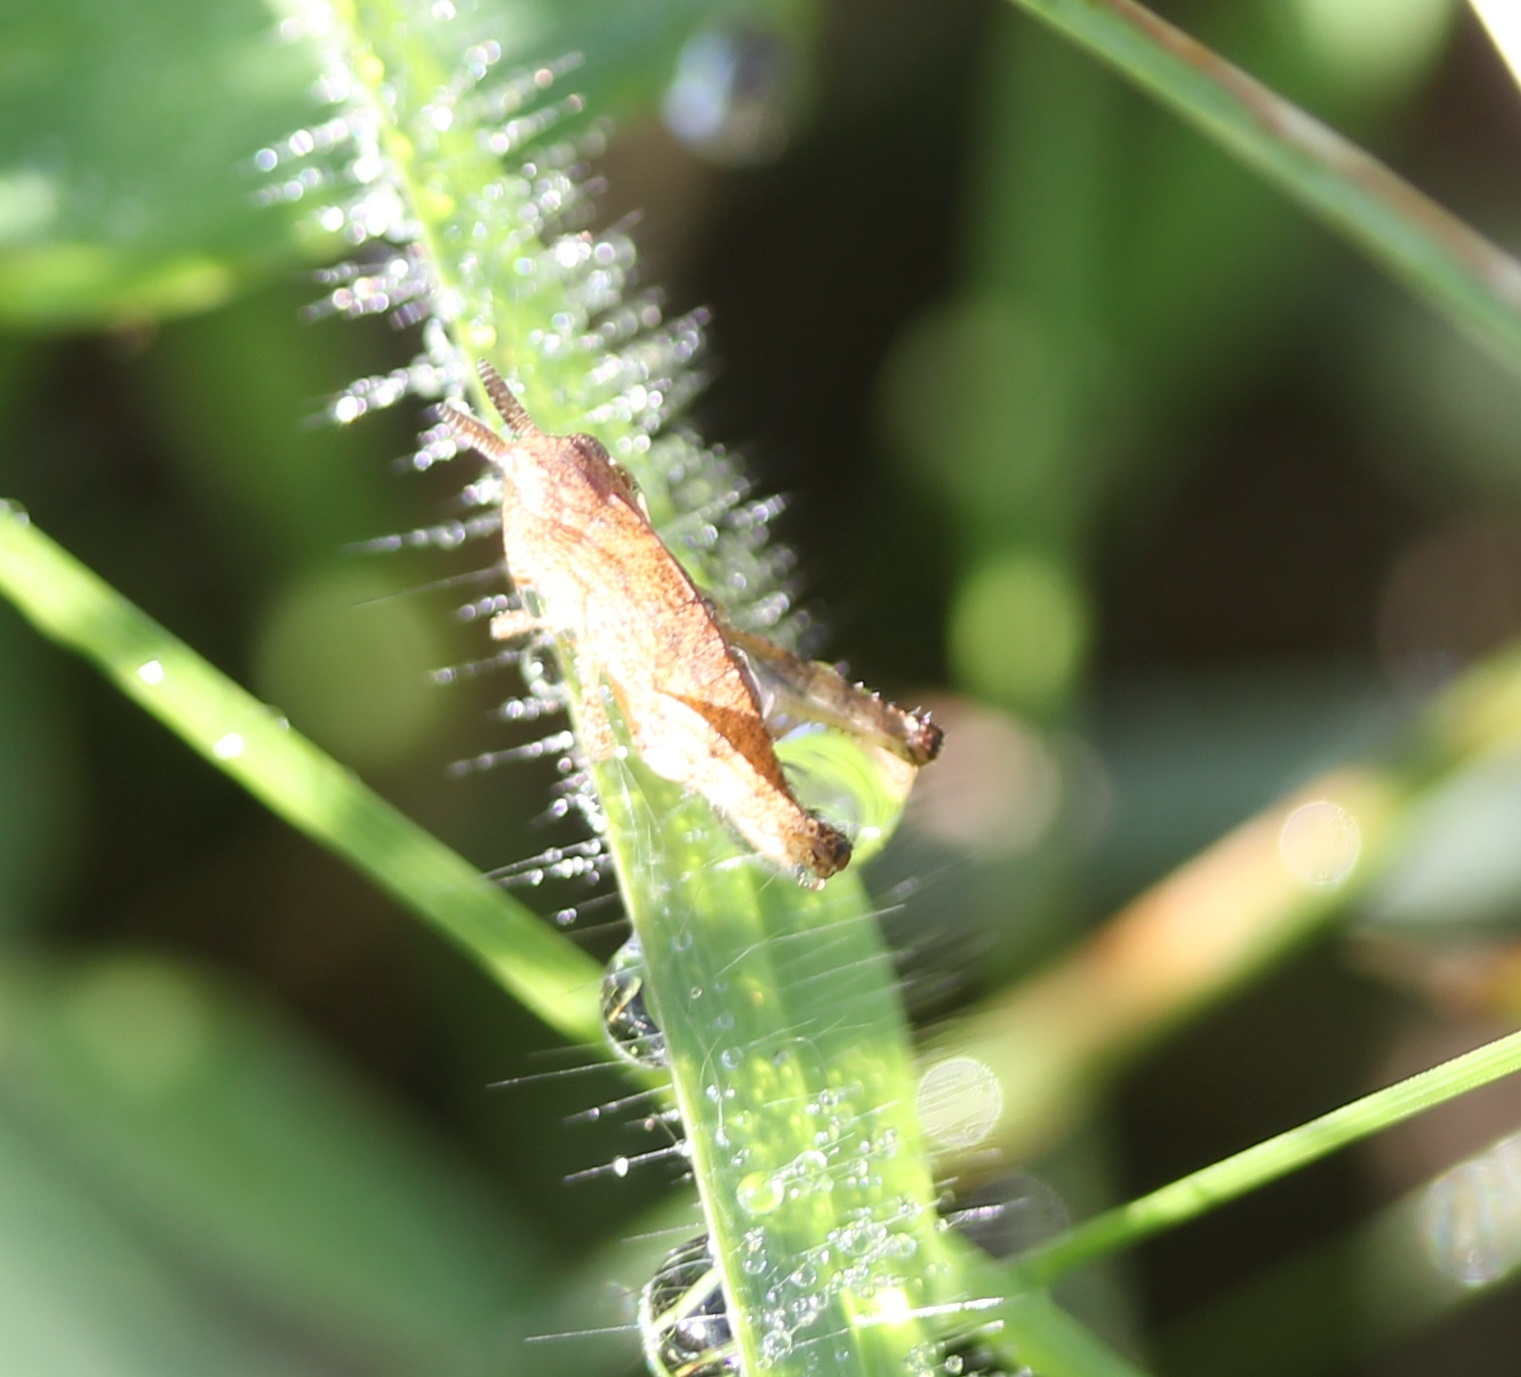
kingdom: Animalia
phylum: Arthropoda
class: Insecta
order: Orthoptera
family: Acrididae
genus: Chortophaga
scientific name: Chortophaga viridifasciata
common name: Green-striped grasshopper
